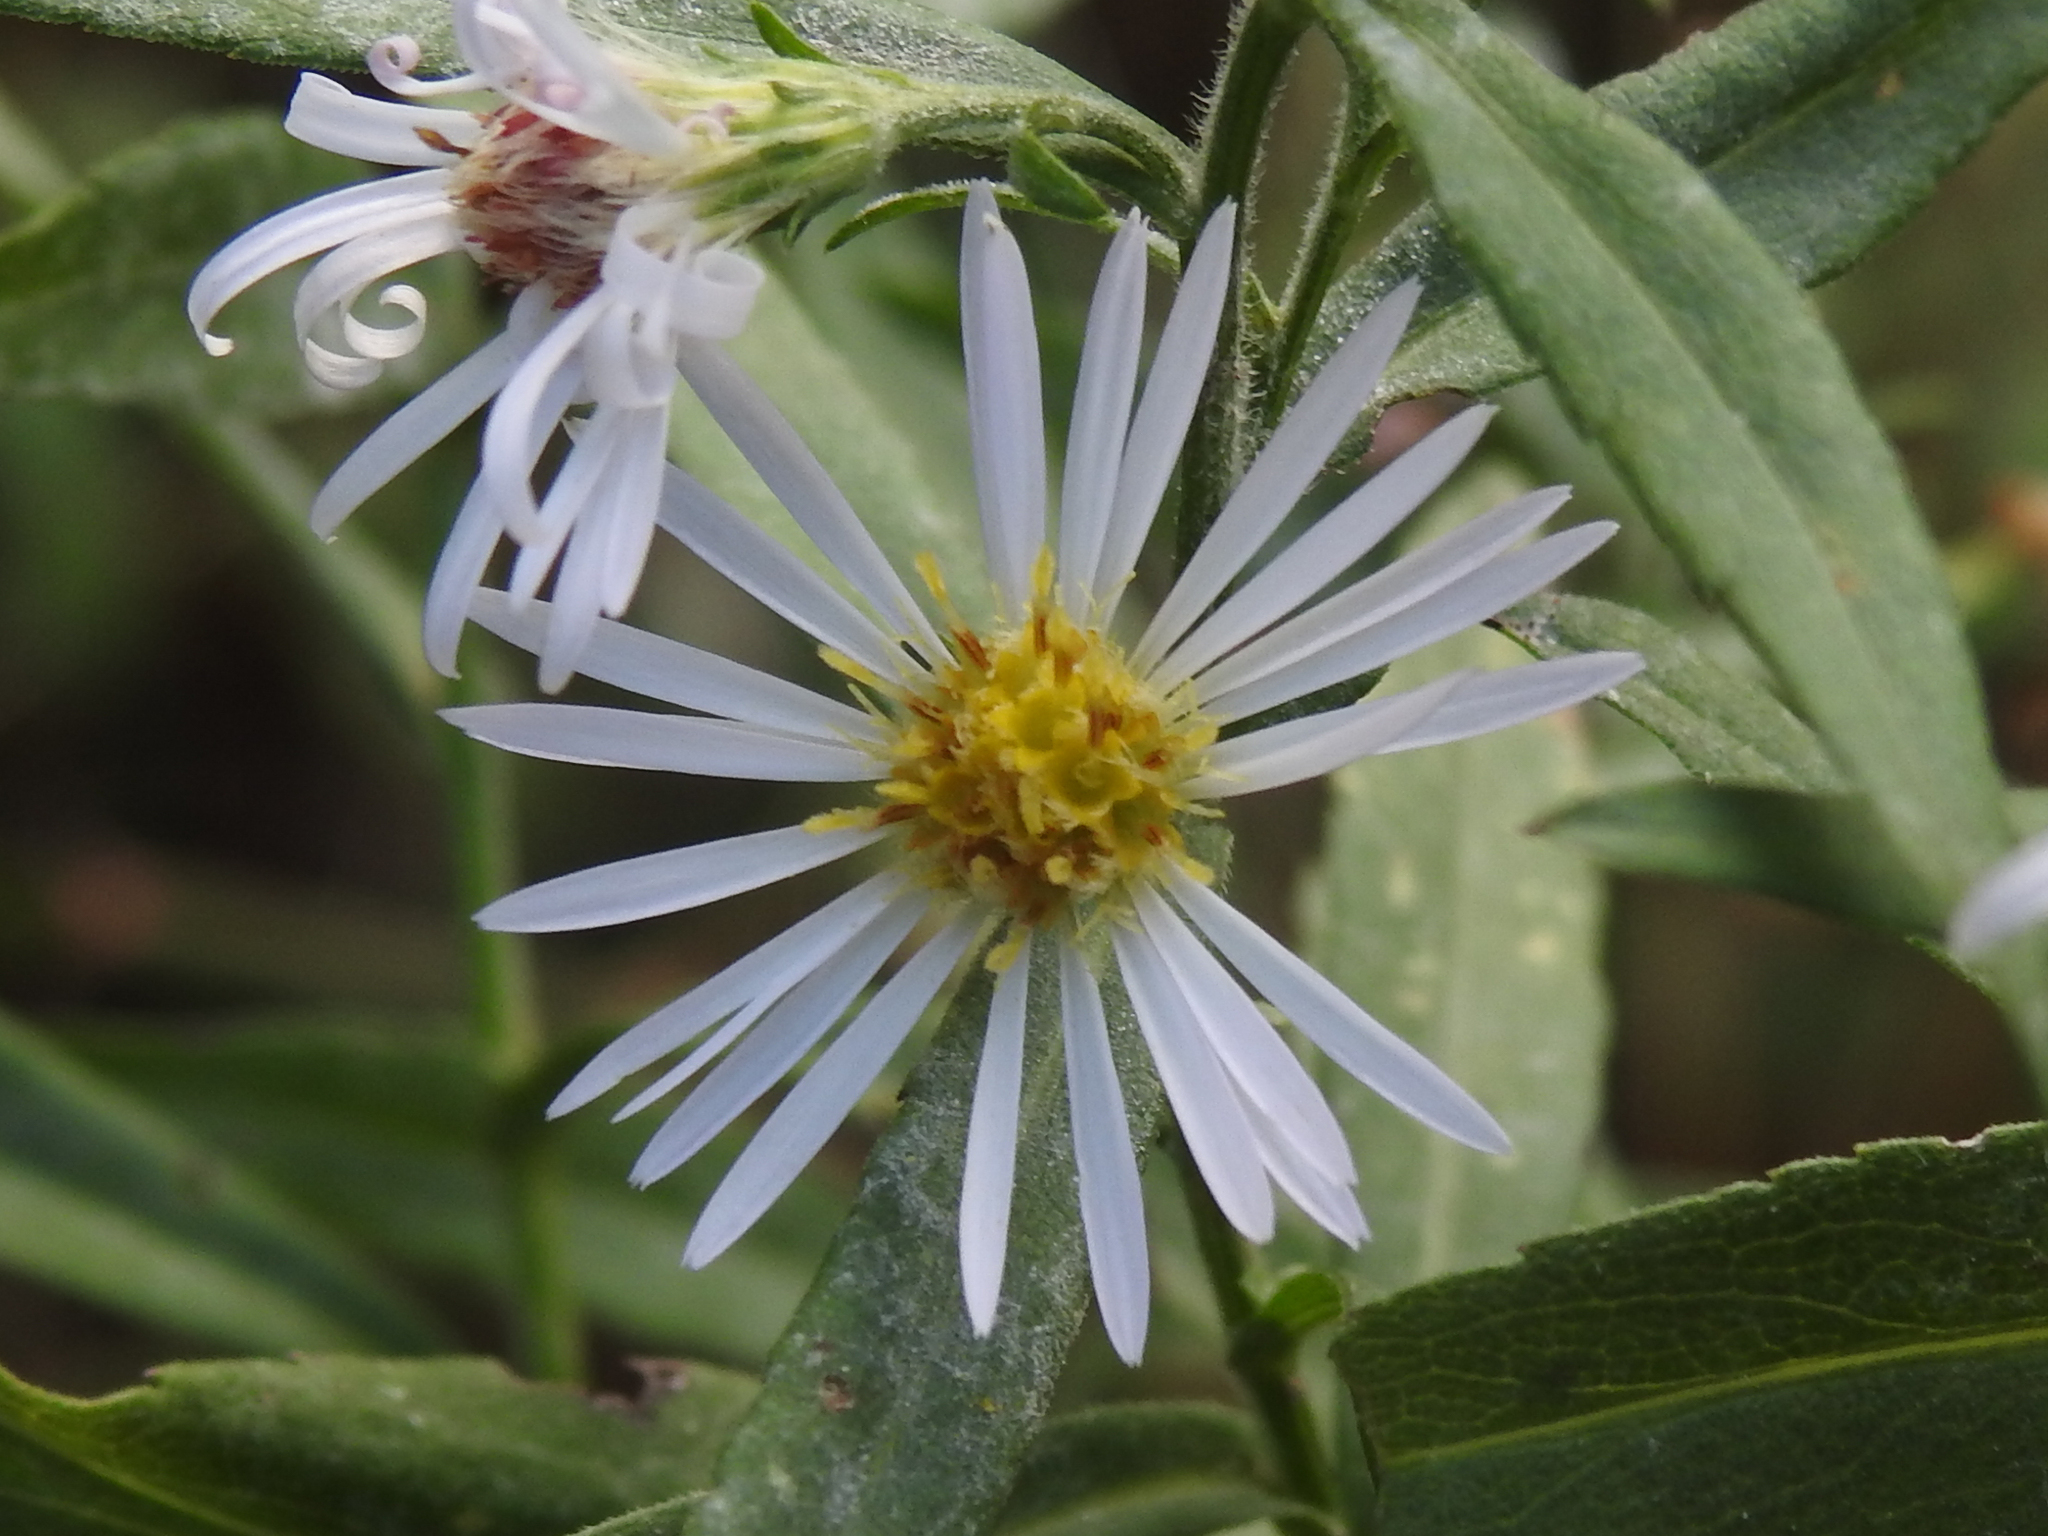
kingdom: Plantae
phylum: Tracheophyta
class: Magnoliopsida
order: Asterales
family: Asteraceae
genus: Symphyotrichum
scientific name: Symphyotrichum lanceolatum
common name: Panicled aster
